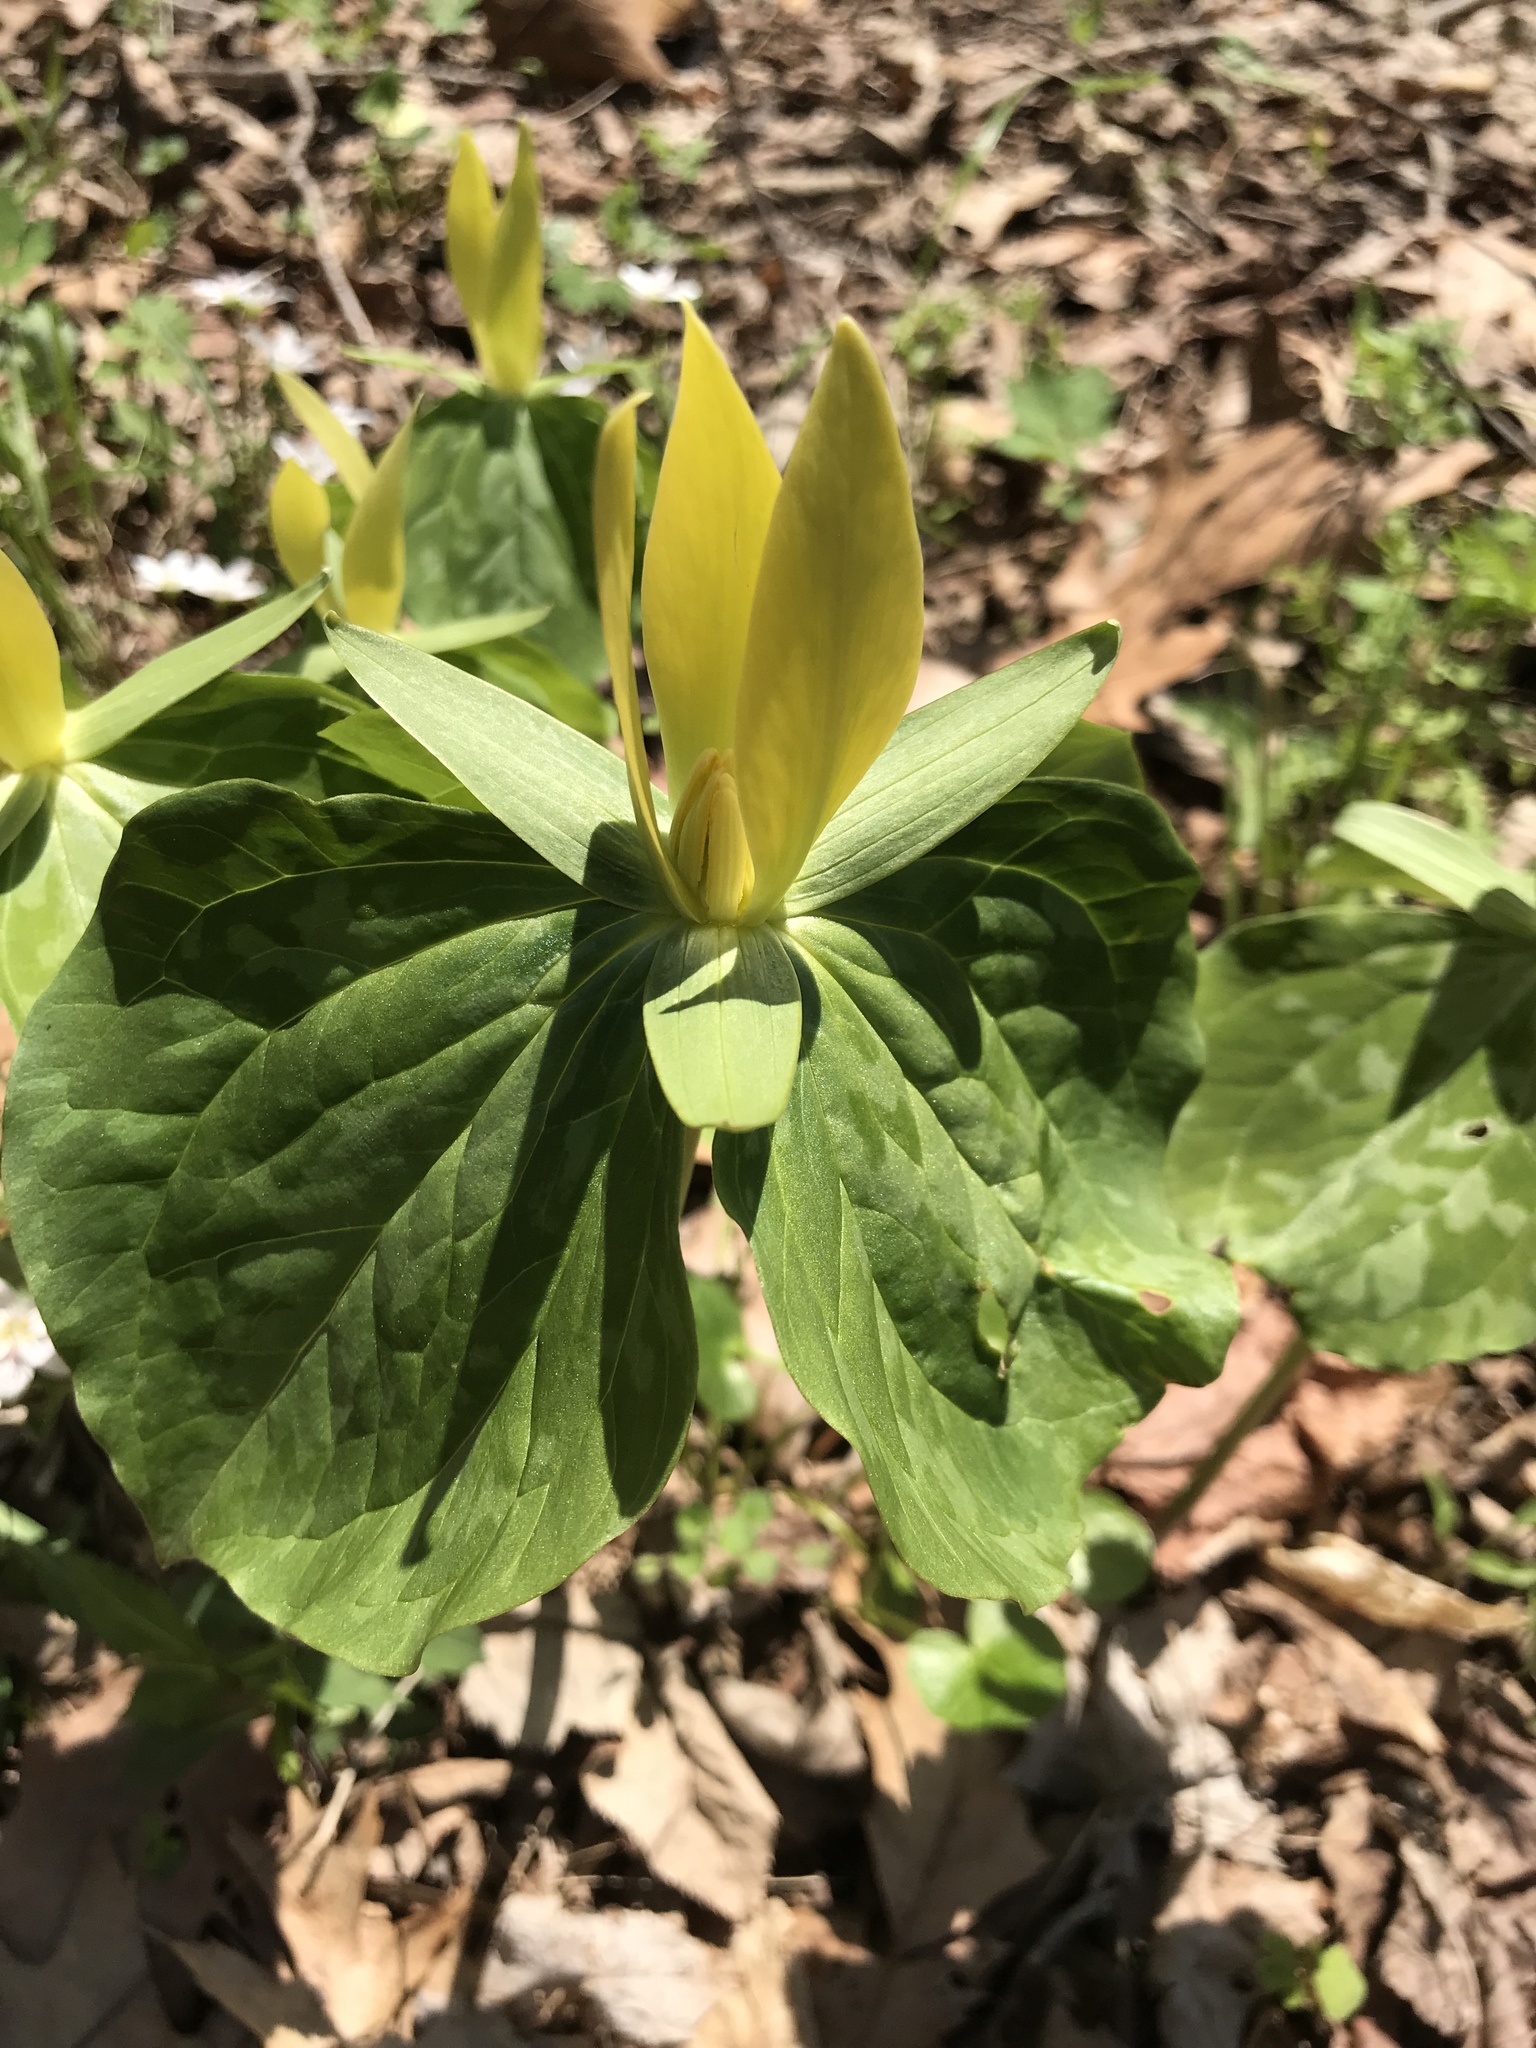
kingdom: Plantae
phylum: Tracheophyta
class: Liliopsida
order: Liliales
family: Melanthiaceae
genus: Trillium
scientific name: Trillium luteum
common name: Wax trillium
